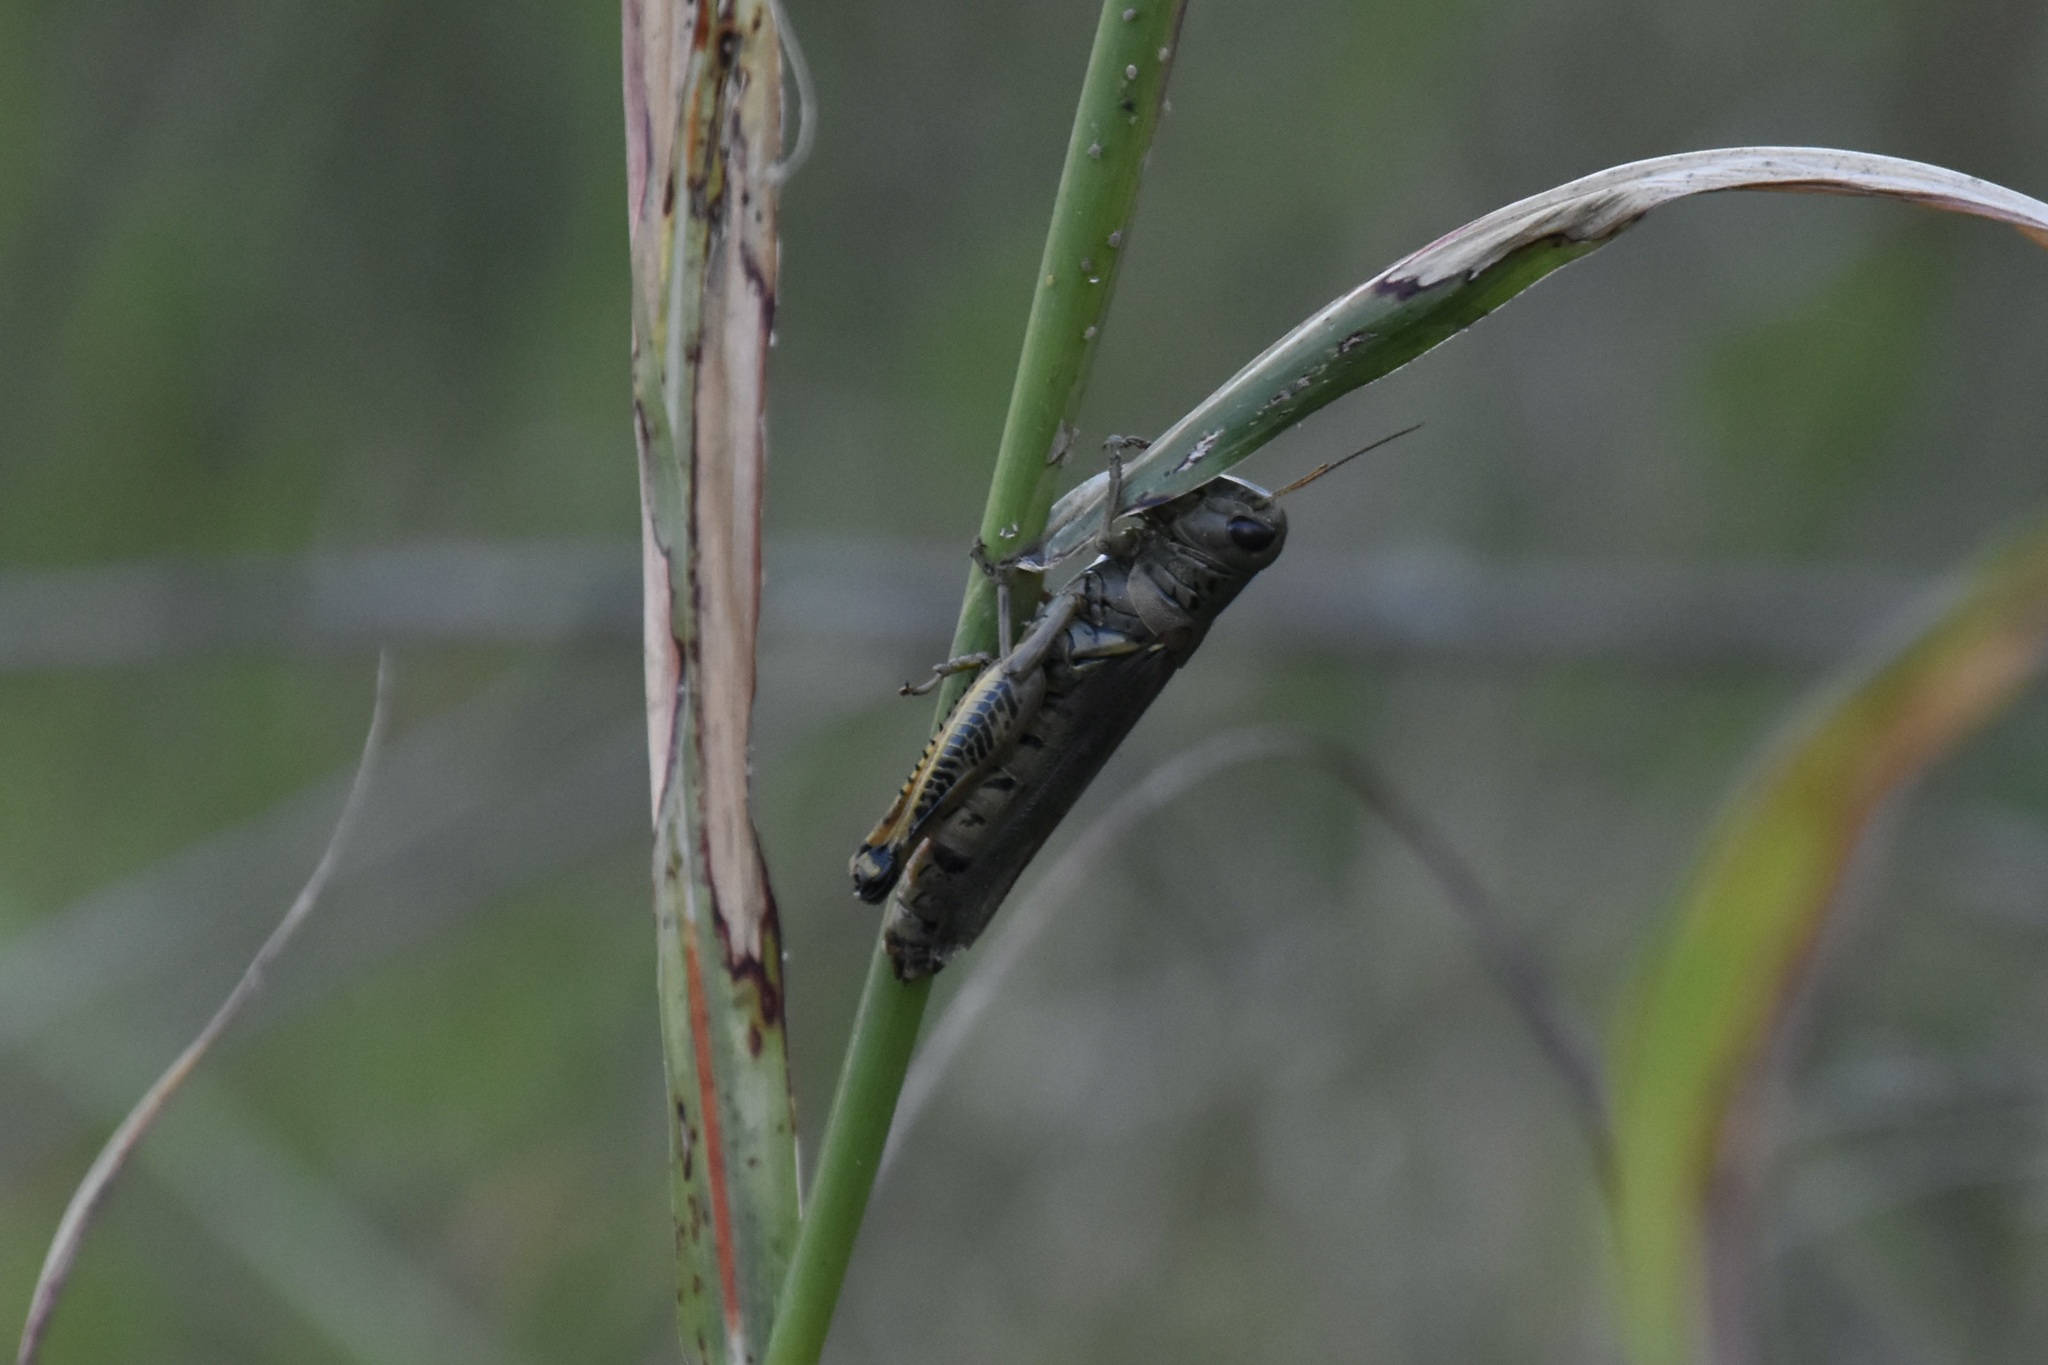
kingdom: Animalia
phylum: Arthropoda
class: Insecta
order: Orthoptera
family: Acrididae
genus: Melanoplus
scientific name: Melanoplus differentialis
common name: Differential grasshopper
